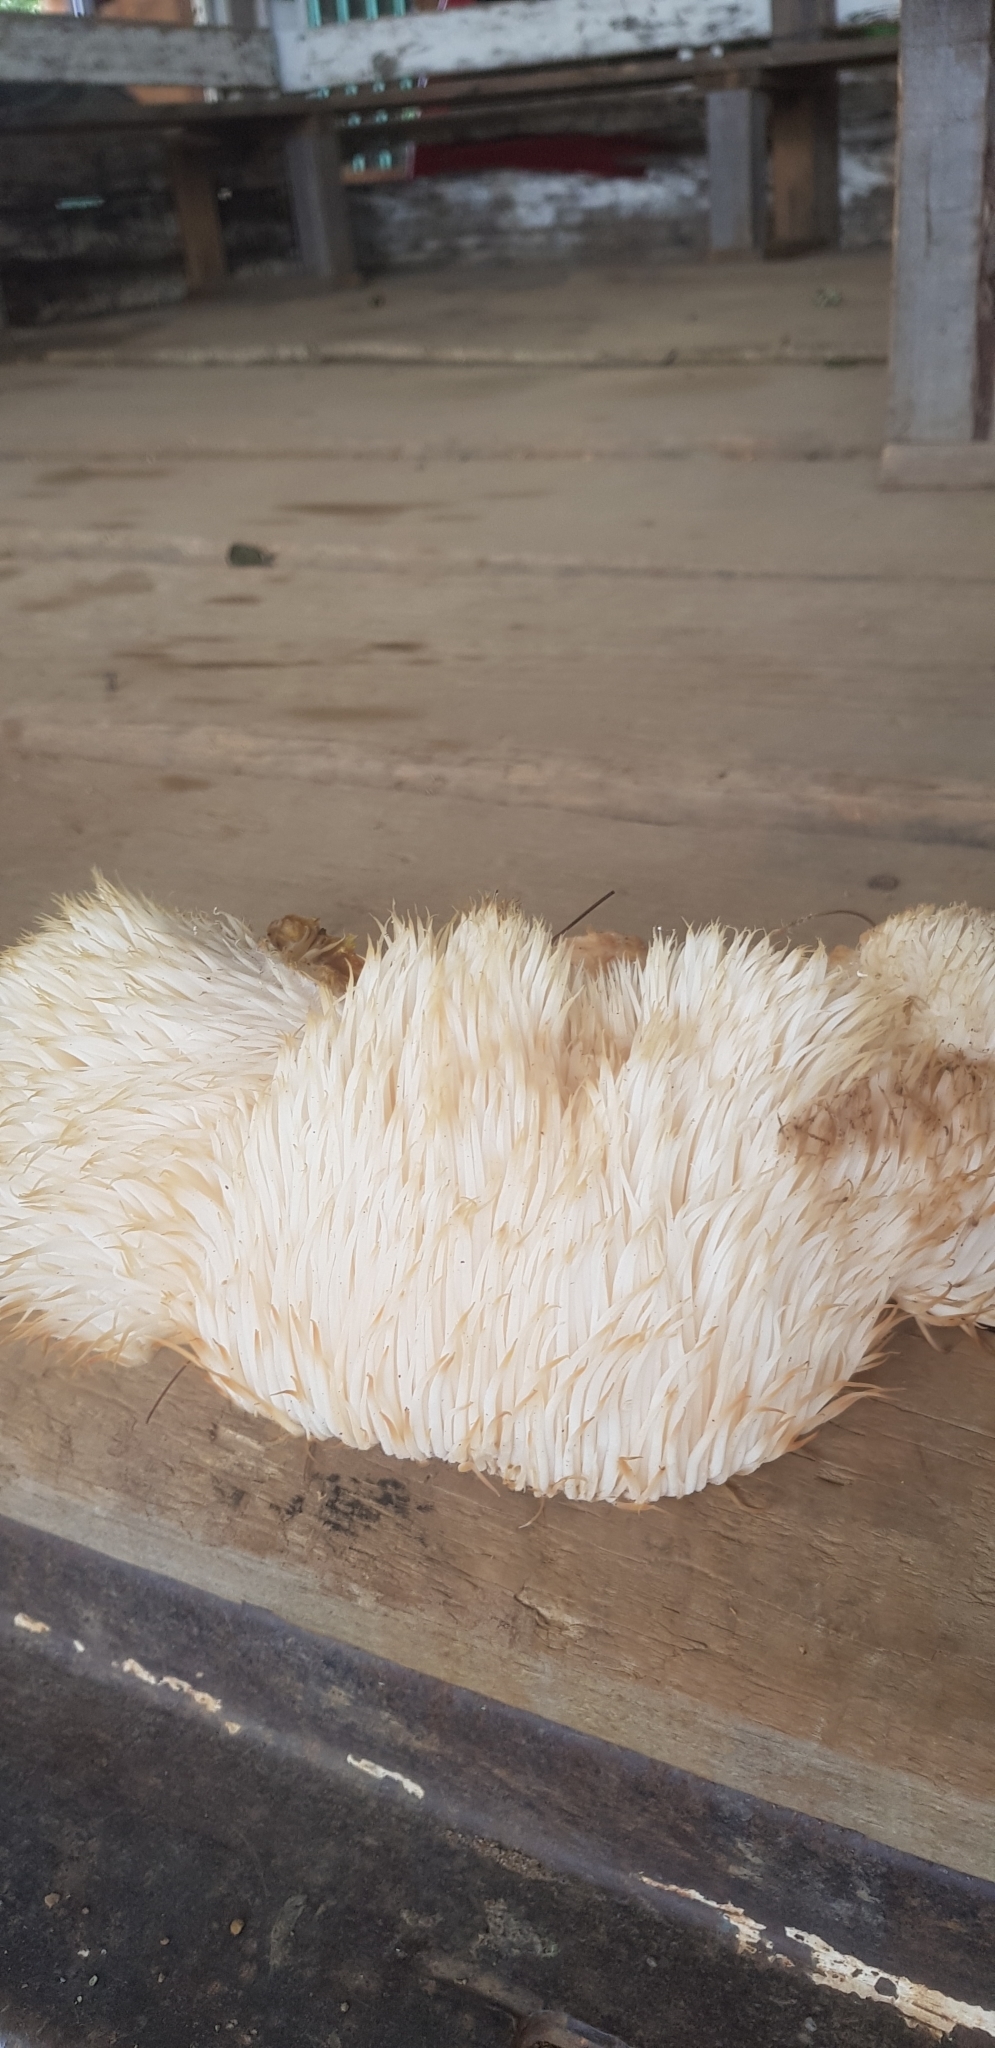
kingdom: Fungi
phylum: Basidiomycota
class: Agaricomycetes
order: Russulales
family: Hericiaceae
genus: Hericium
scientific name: Hericium erinaceus
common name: Bearded tooth
